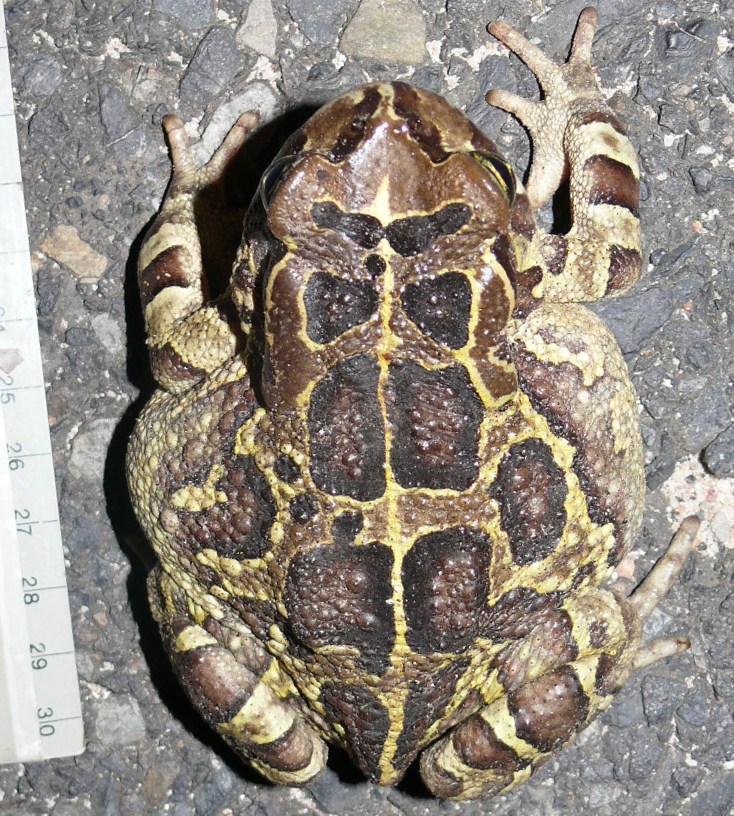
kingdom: Animalia
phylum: Chordata
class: Amphibia
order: Anura
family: Bufonidae
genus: Sclerophrys
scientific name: Sclerophrys pantherina
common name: Panther toad
